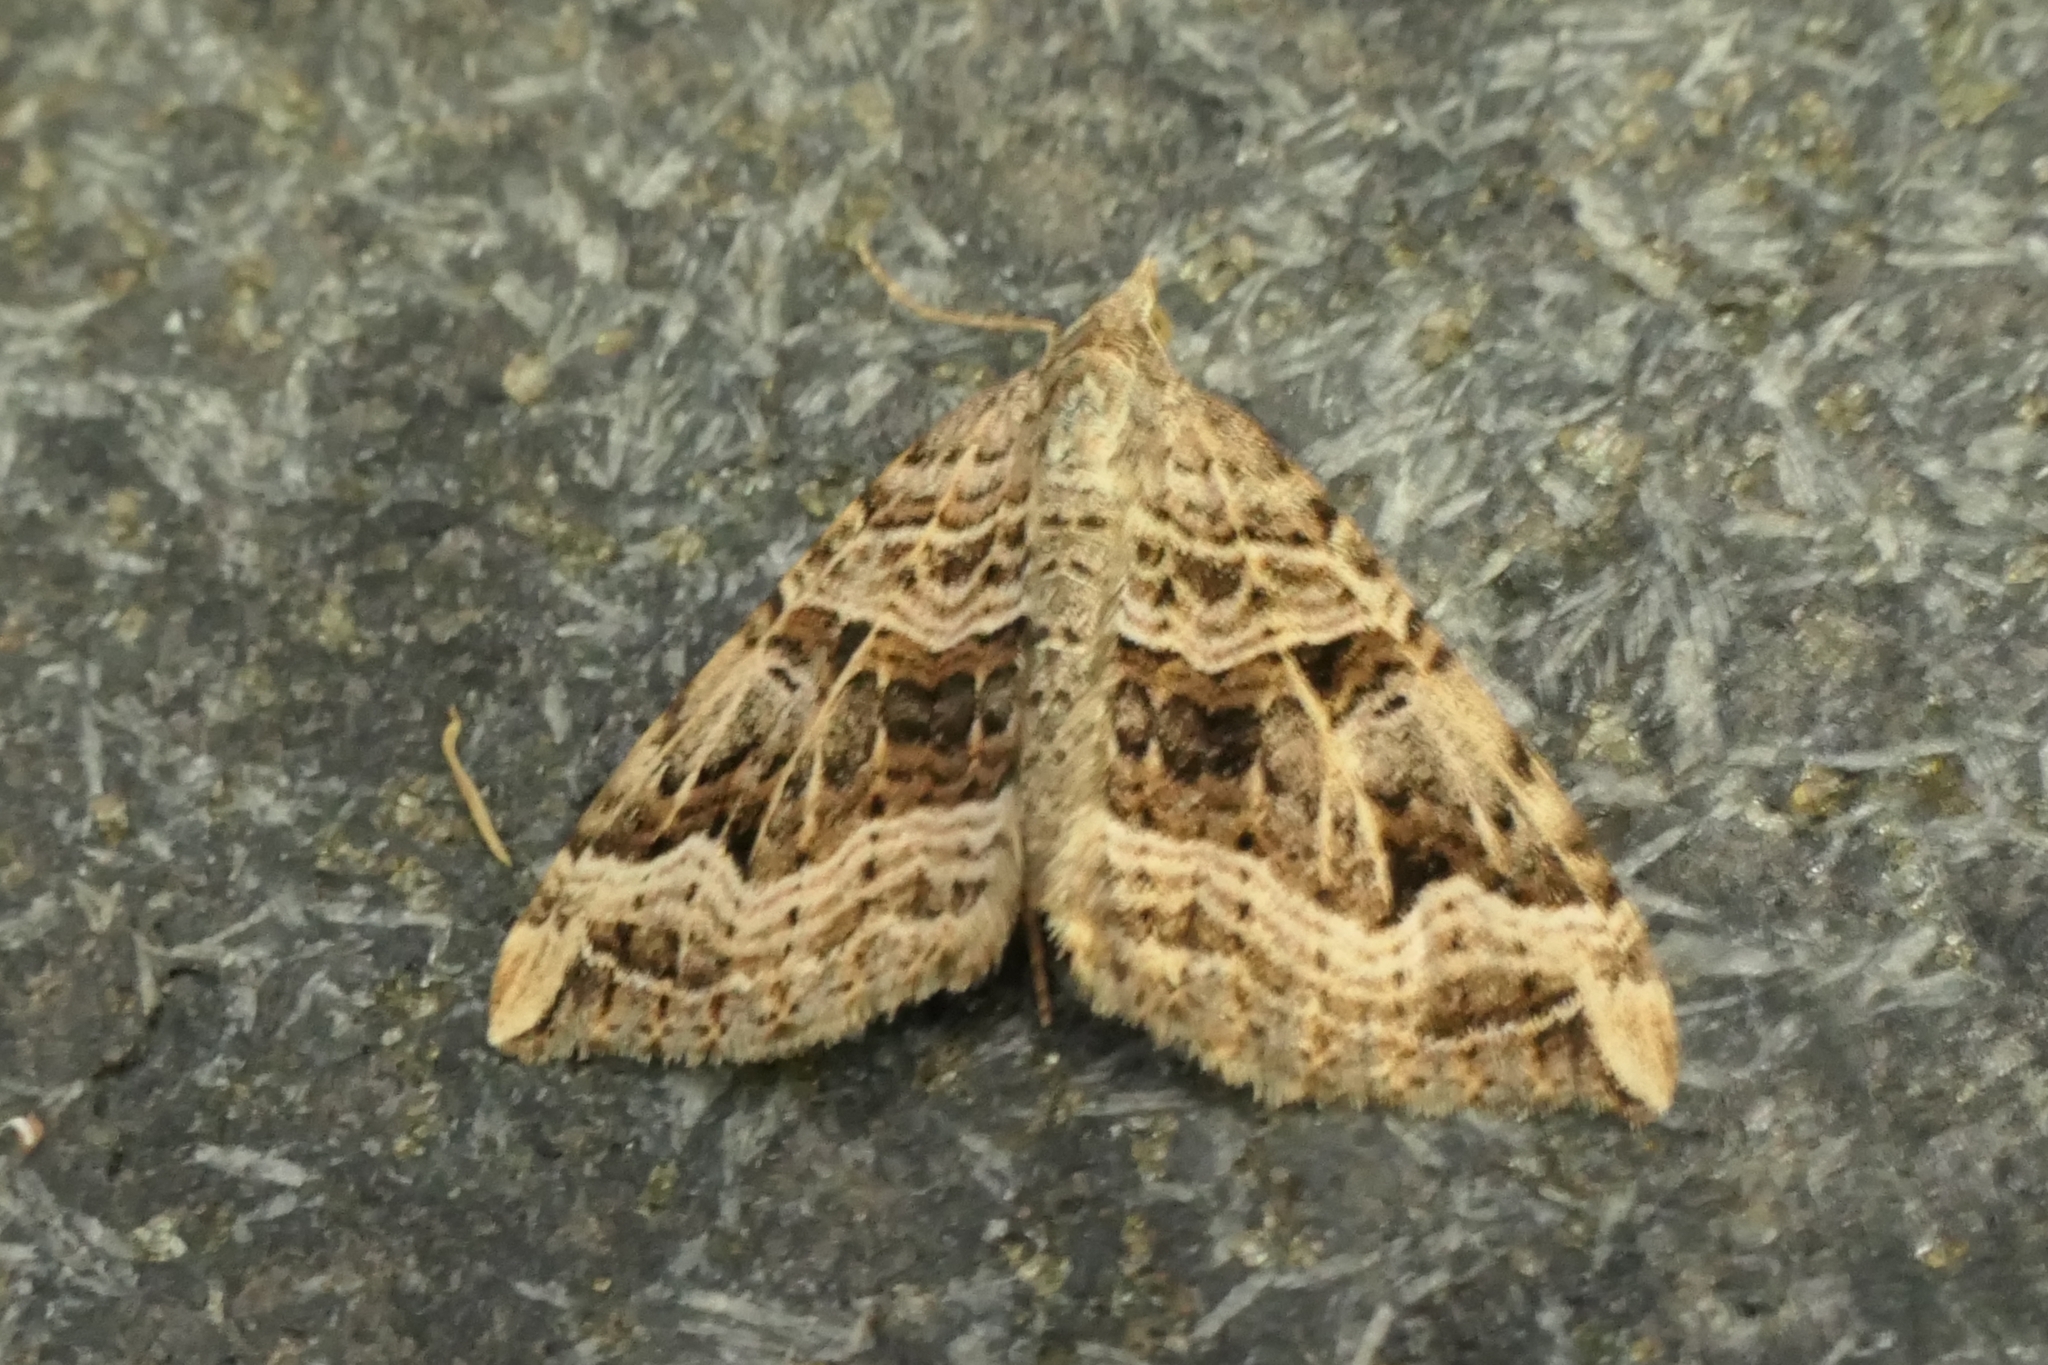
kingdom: Animalia
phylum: Arthropoda
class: Insecta
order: Lepidoptera
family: Geometridae
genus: Xanthorhoe
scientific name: Xanthorhoe semifissata
